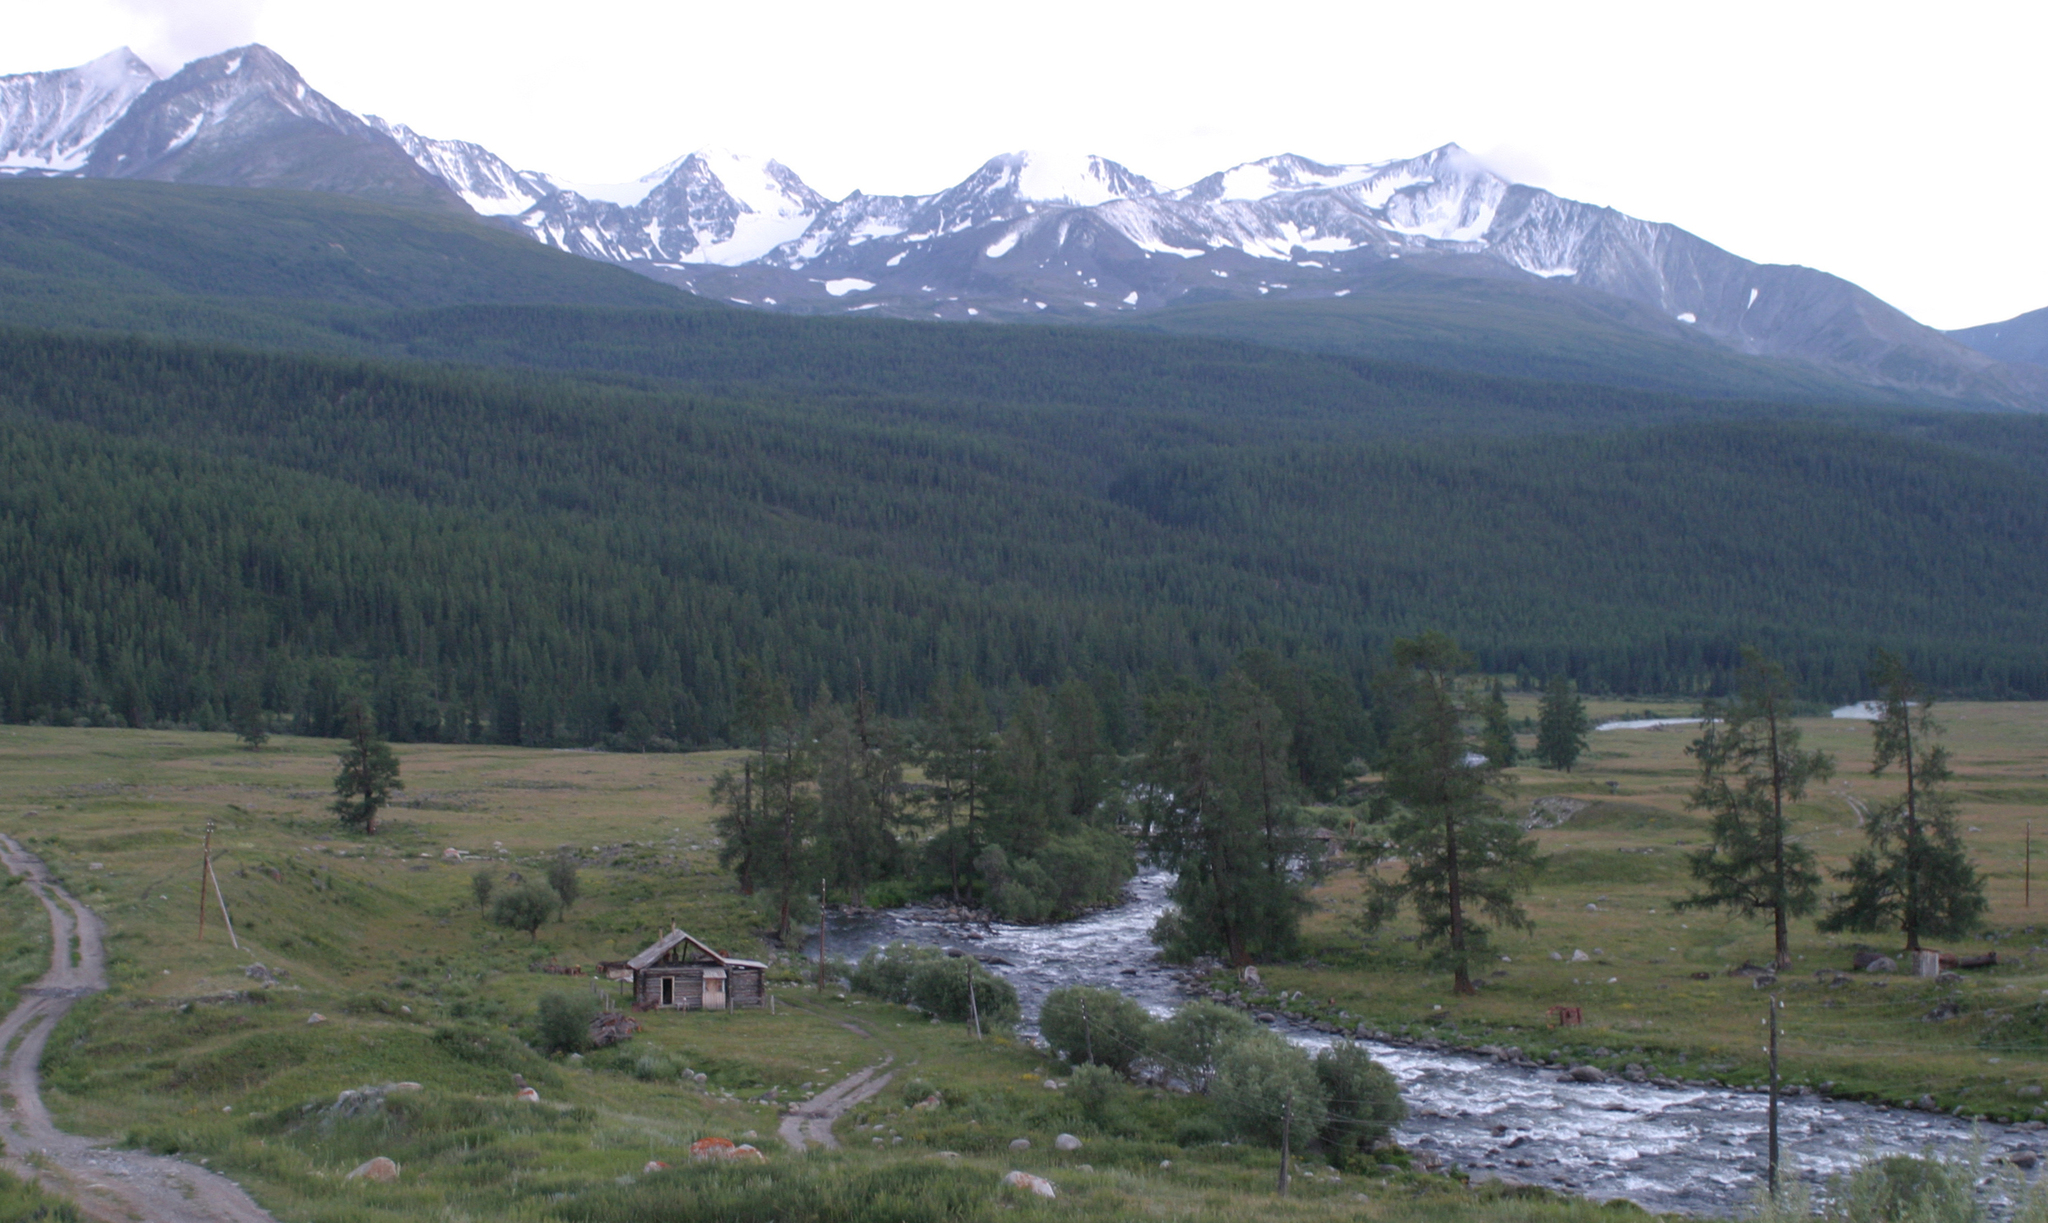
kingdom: Plantae
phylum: Tracheophyta
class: Pinopsida
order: Pinales
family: Pinaceae
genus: Larix
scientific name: Larix sibirica
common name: Siberian larch
